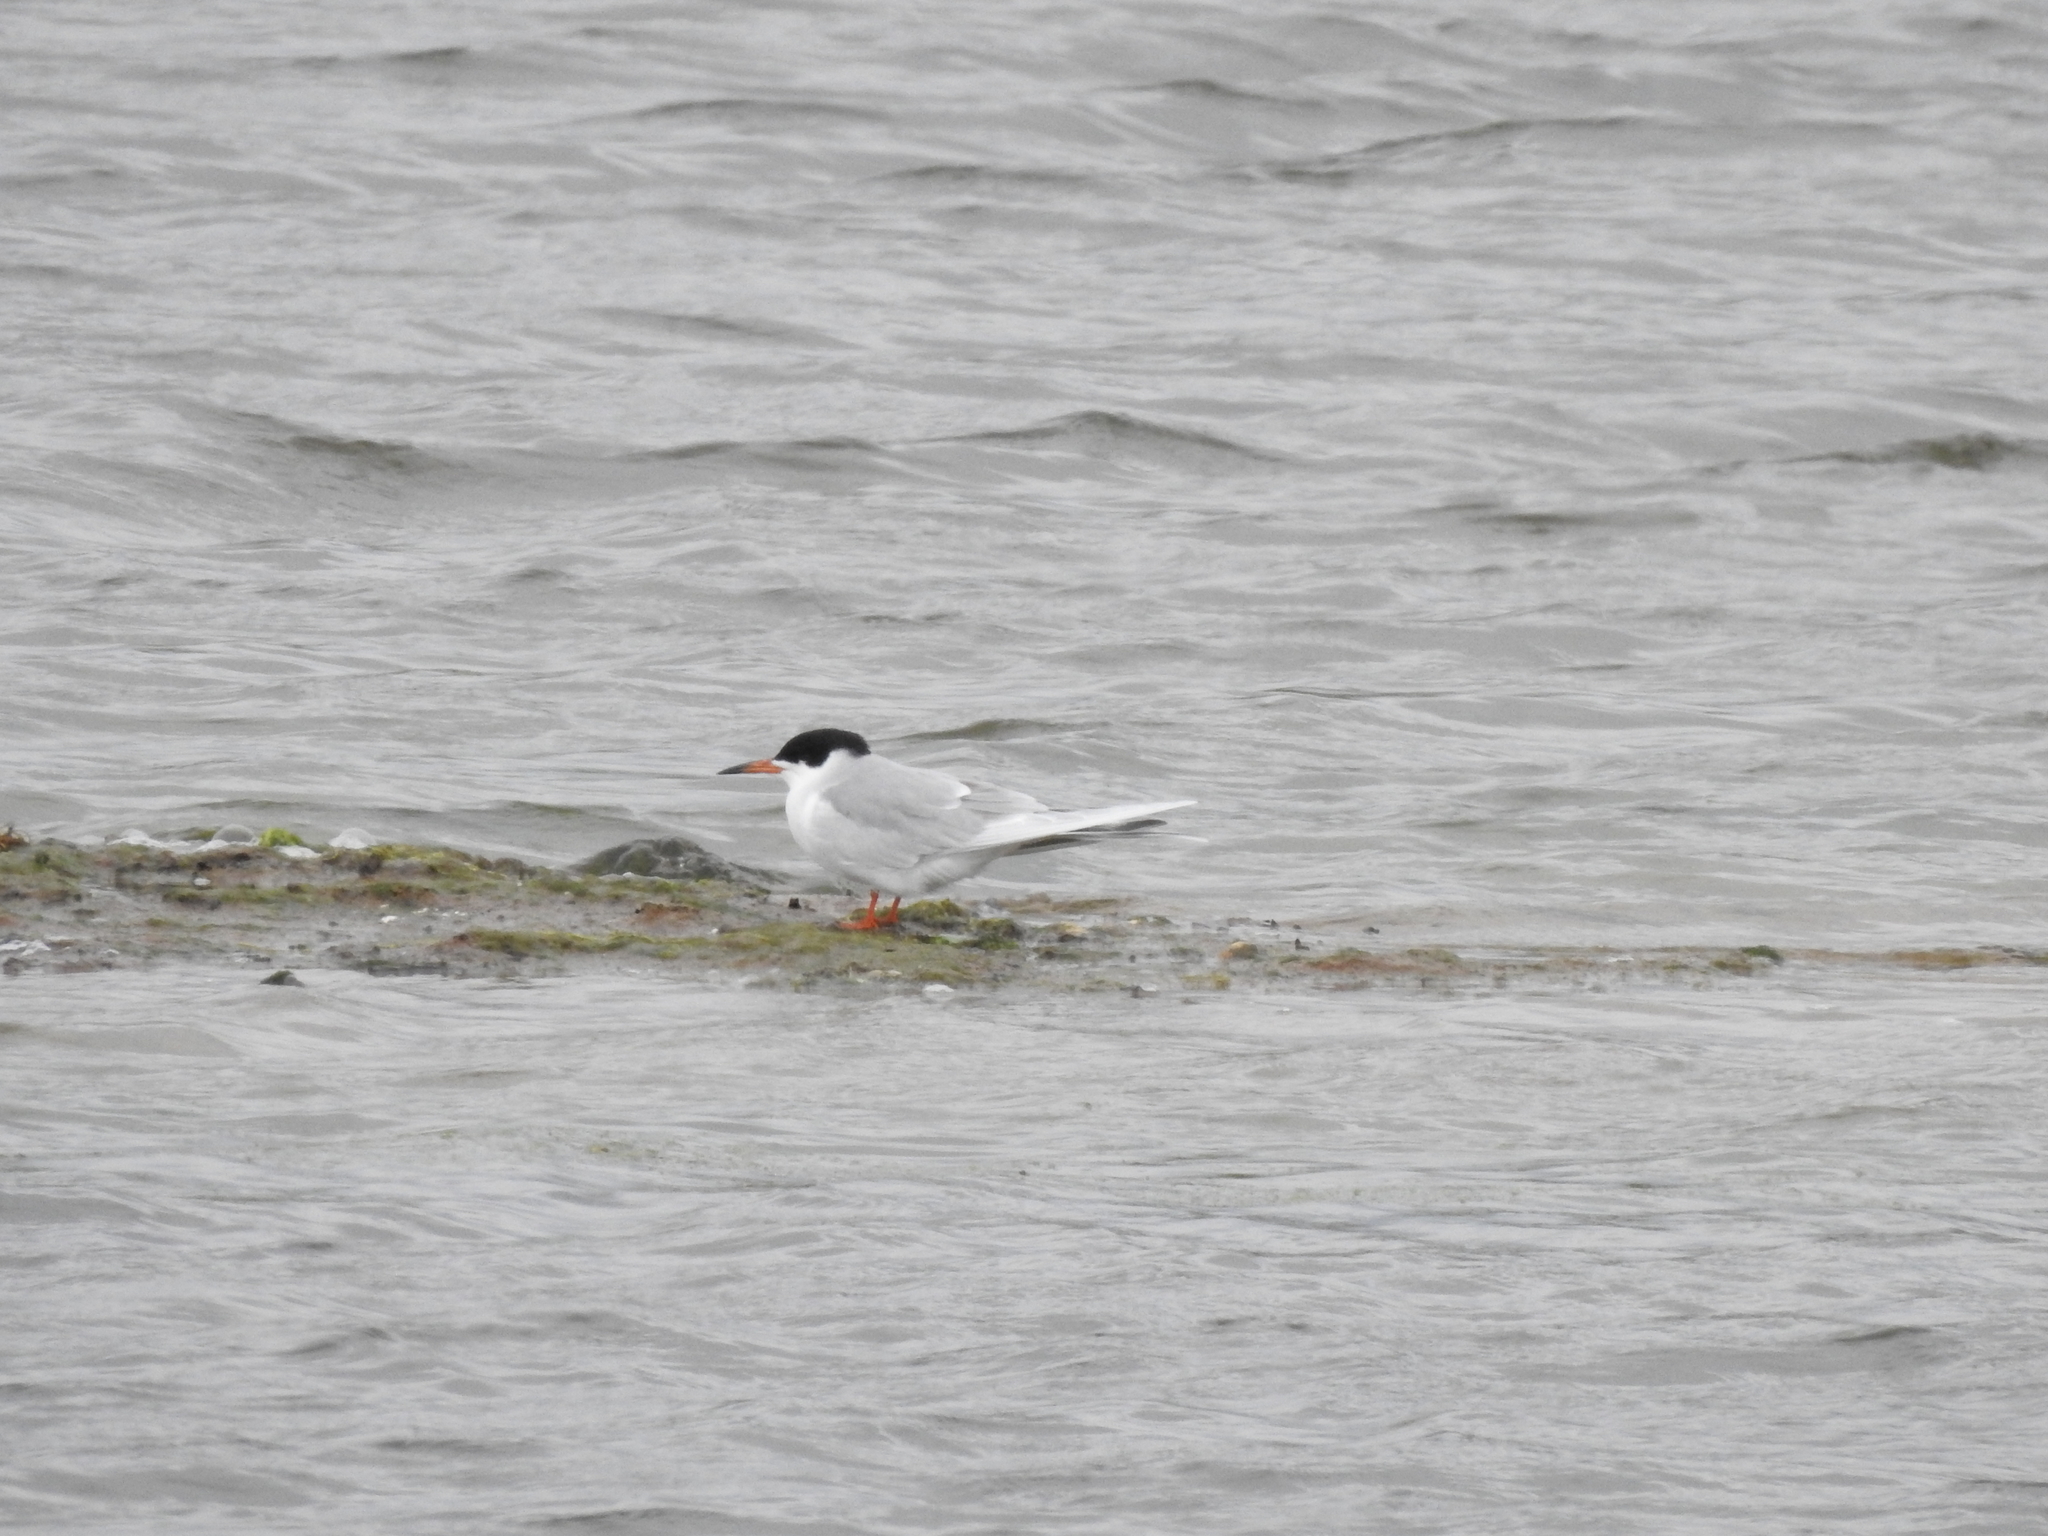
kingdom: Animalia
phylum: Chordata
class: Aves
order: Charadriiformes
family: Laridae
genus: Sterna
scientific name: Sterna forsteri
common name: Forster's tern
